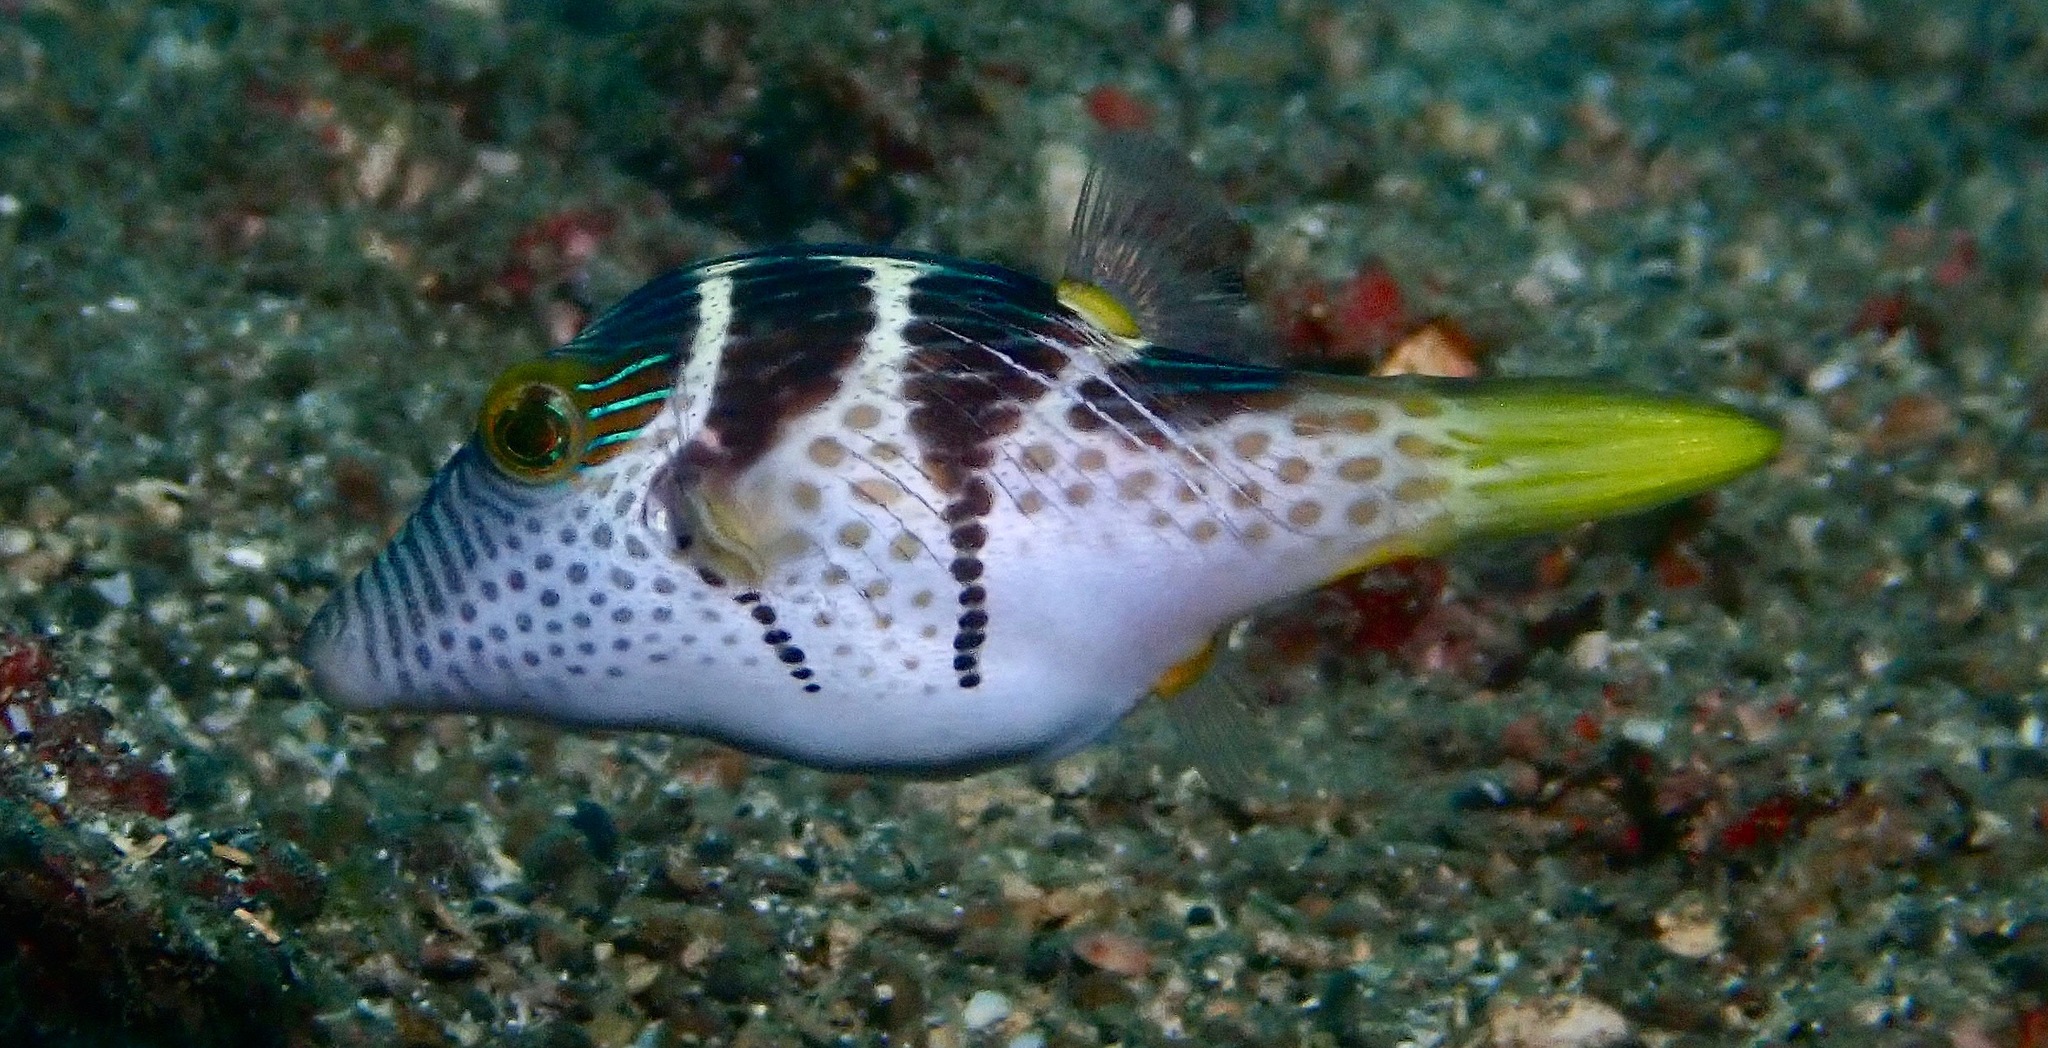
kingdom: Animalia
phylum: Chordata
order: Tetraodontiformes
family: Tetraodontidae
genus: Canthigaster
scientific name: Canthigaster valentini
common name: Banded toby
